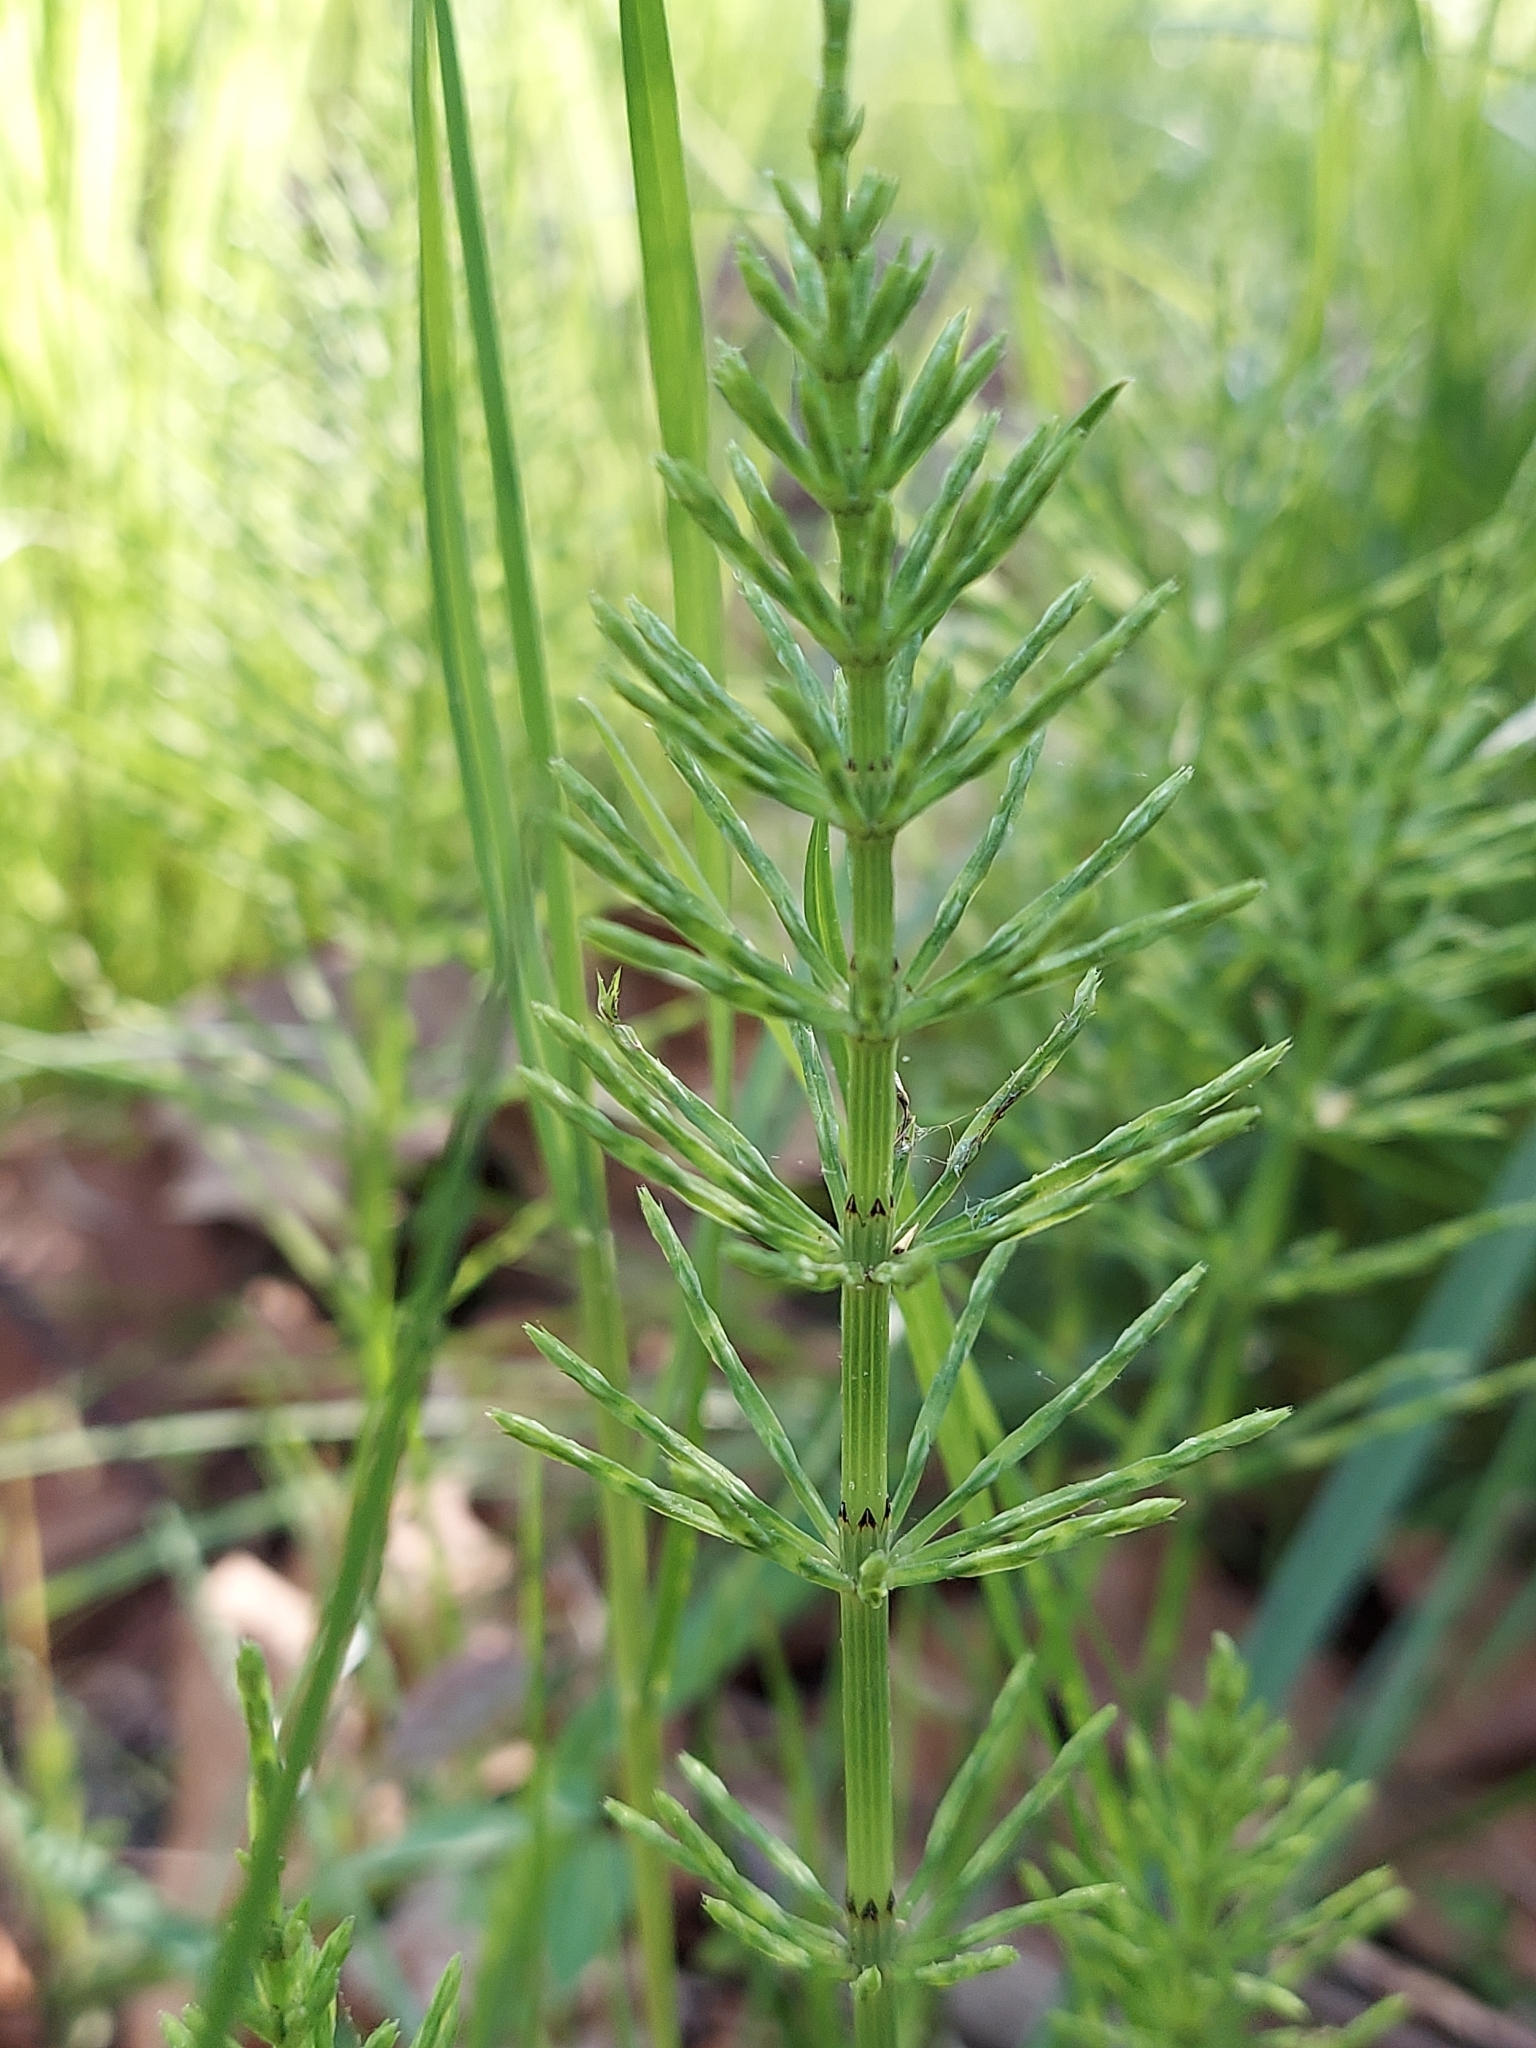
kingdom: Plantae
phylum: Tracheophyta
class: Polypodiopsida
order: Equisetales
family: Equisetaceae
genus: Equisetum
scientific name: Equisetum arvense
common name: Field horsetail
